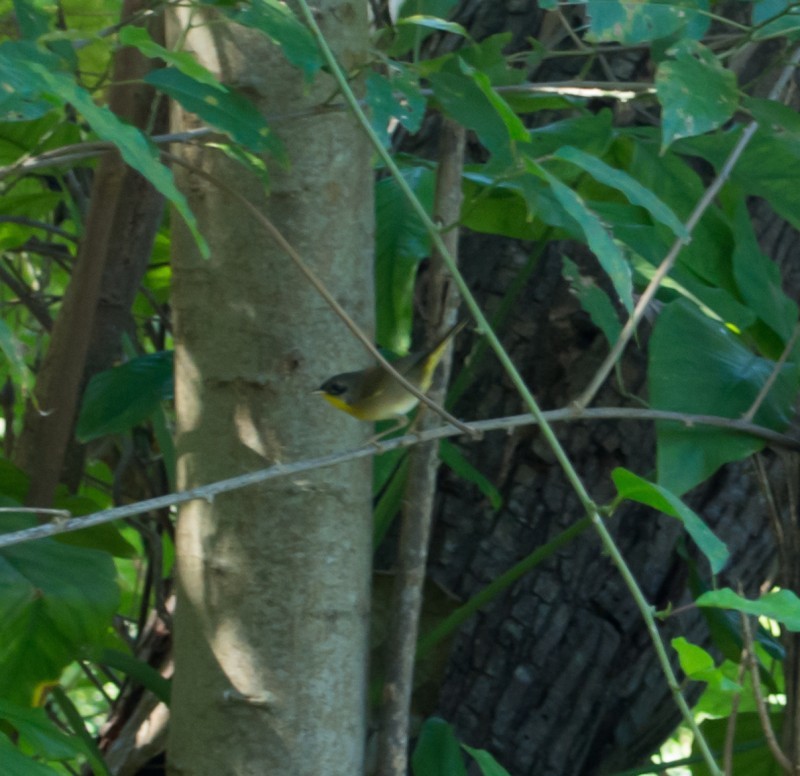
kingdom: Animalia
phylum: Chordata
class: Aves
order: Passeriformes
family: Parulidae
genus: Geothlypis
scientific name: Geothlypis trichas
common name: Common yellowthroat
